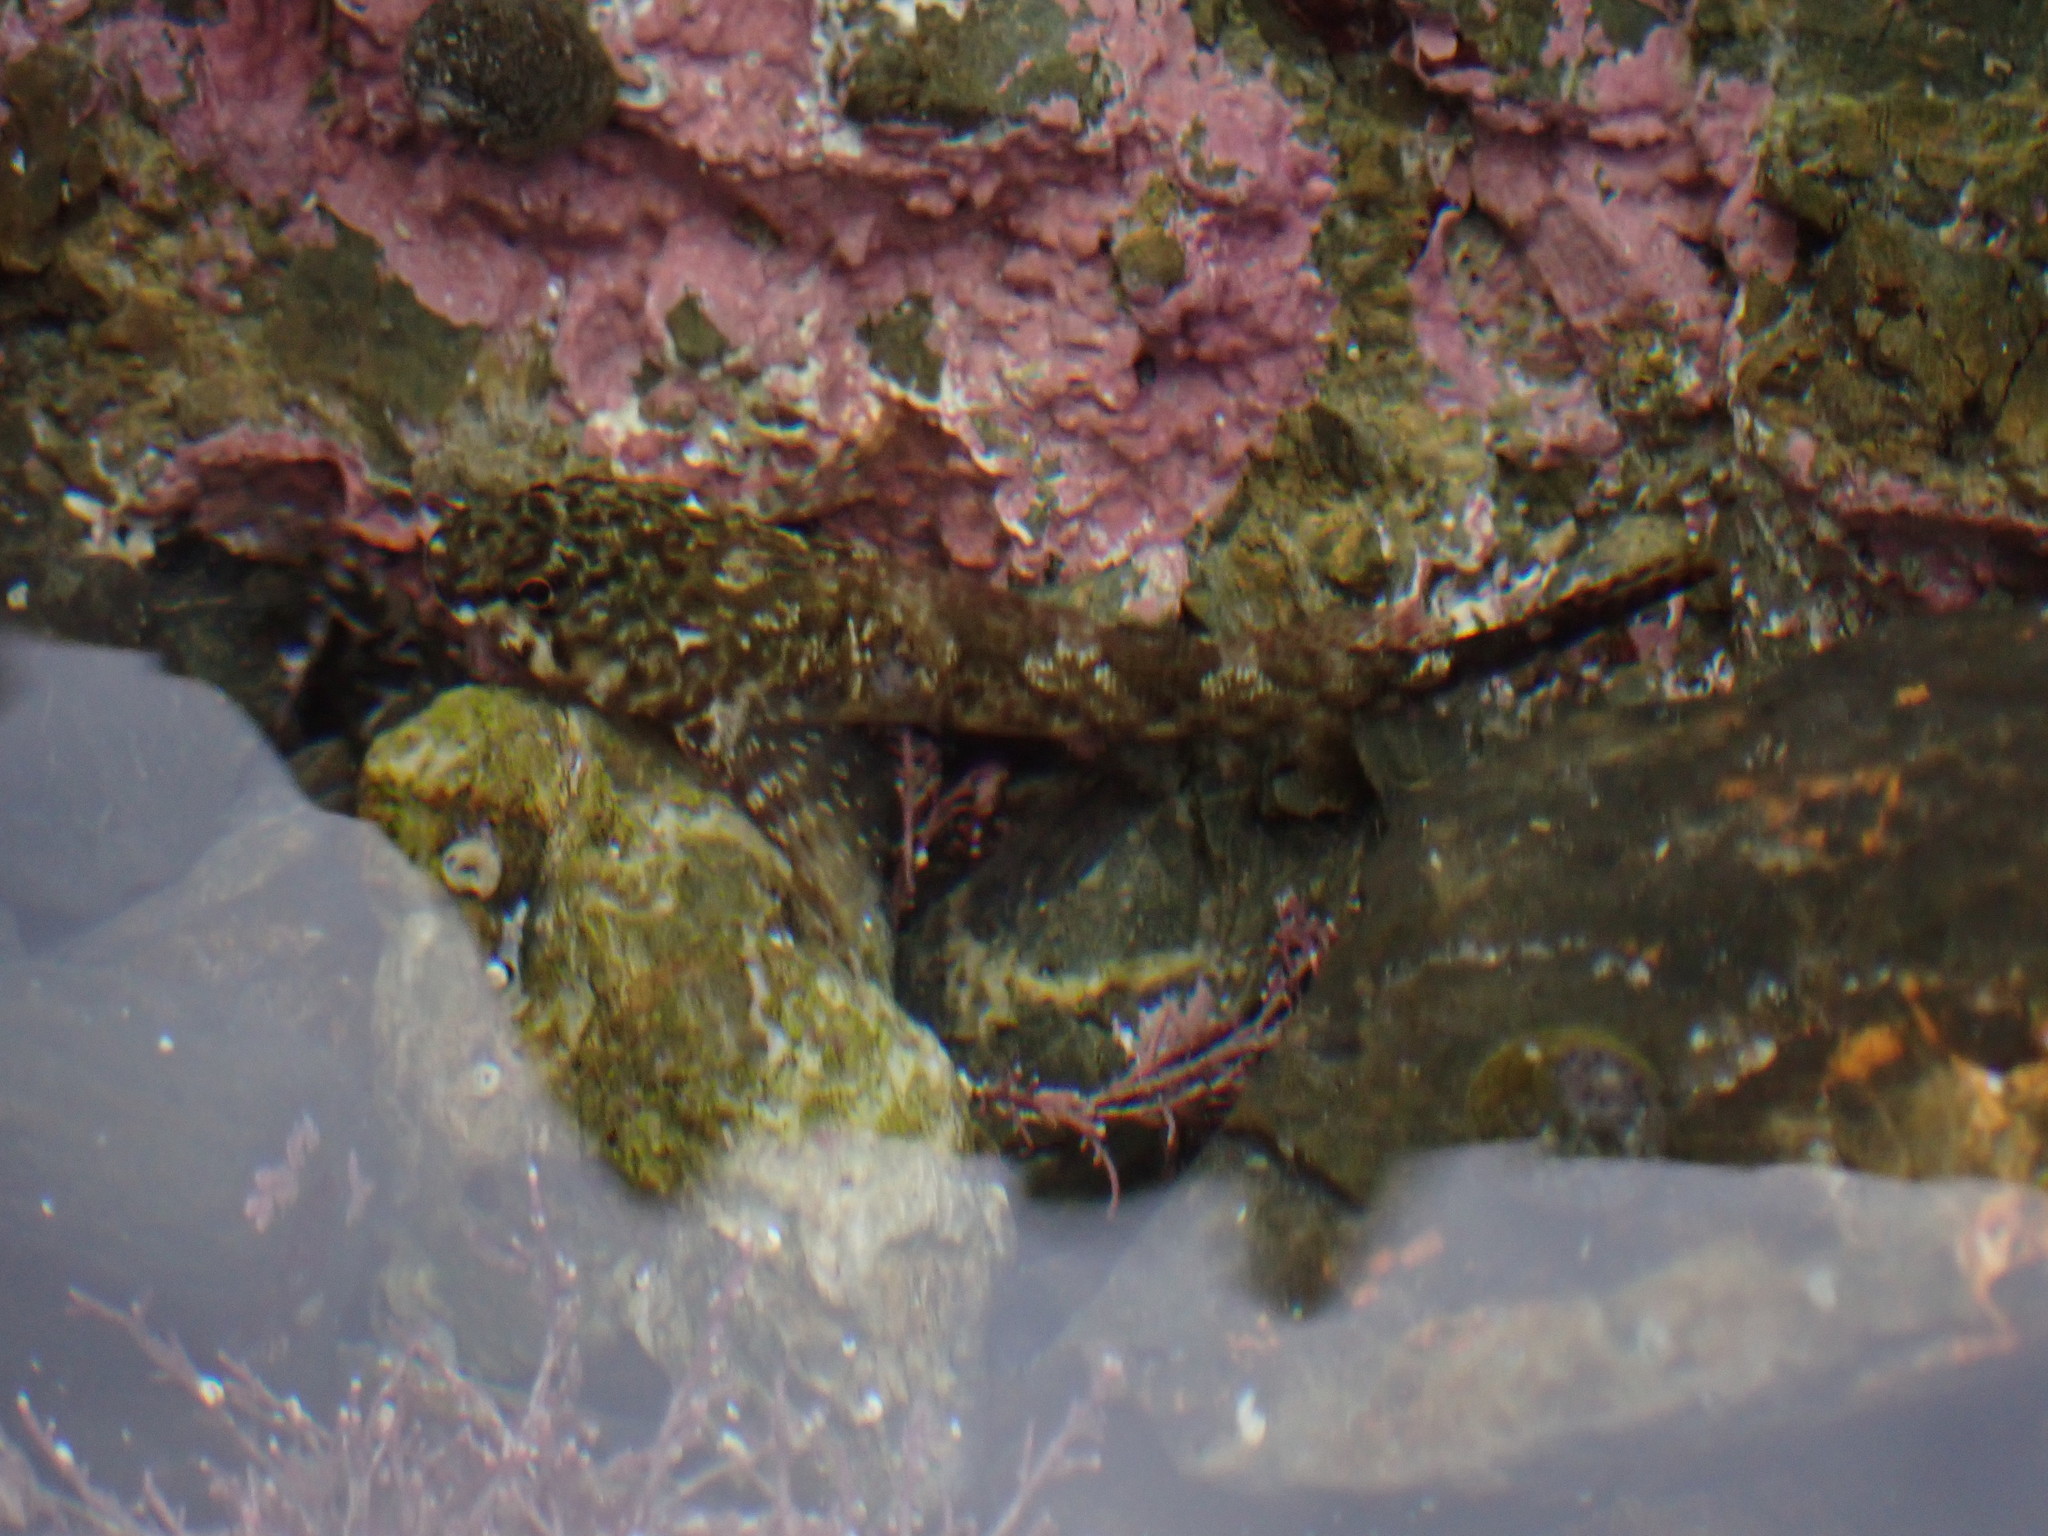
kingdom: Animalia
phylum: Chordata
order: Perciformes
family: Tripterygiidae
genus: Bellapiscis
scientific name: Bellapiscis medius
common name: Twister
